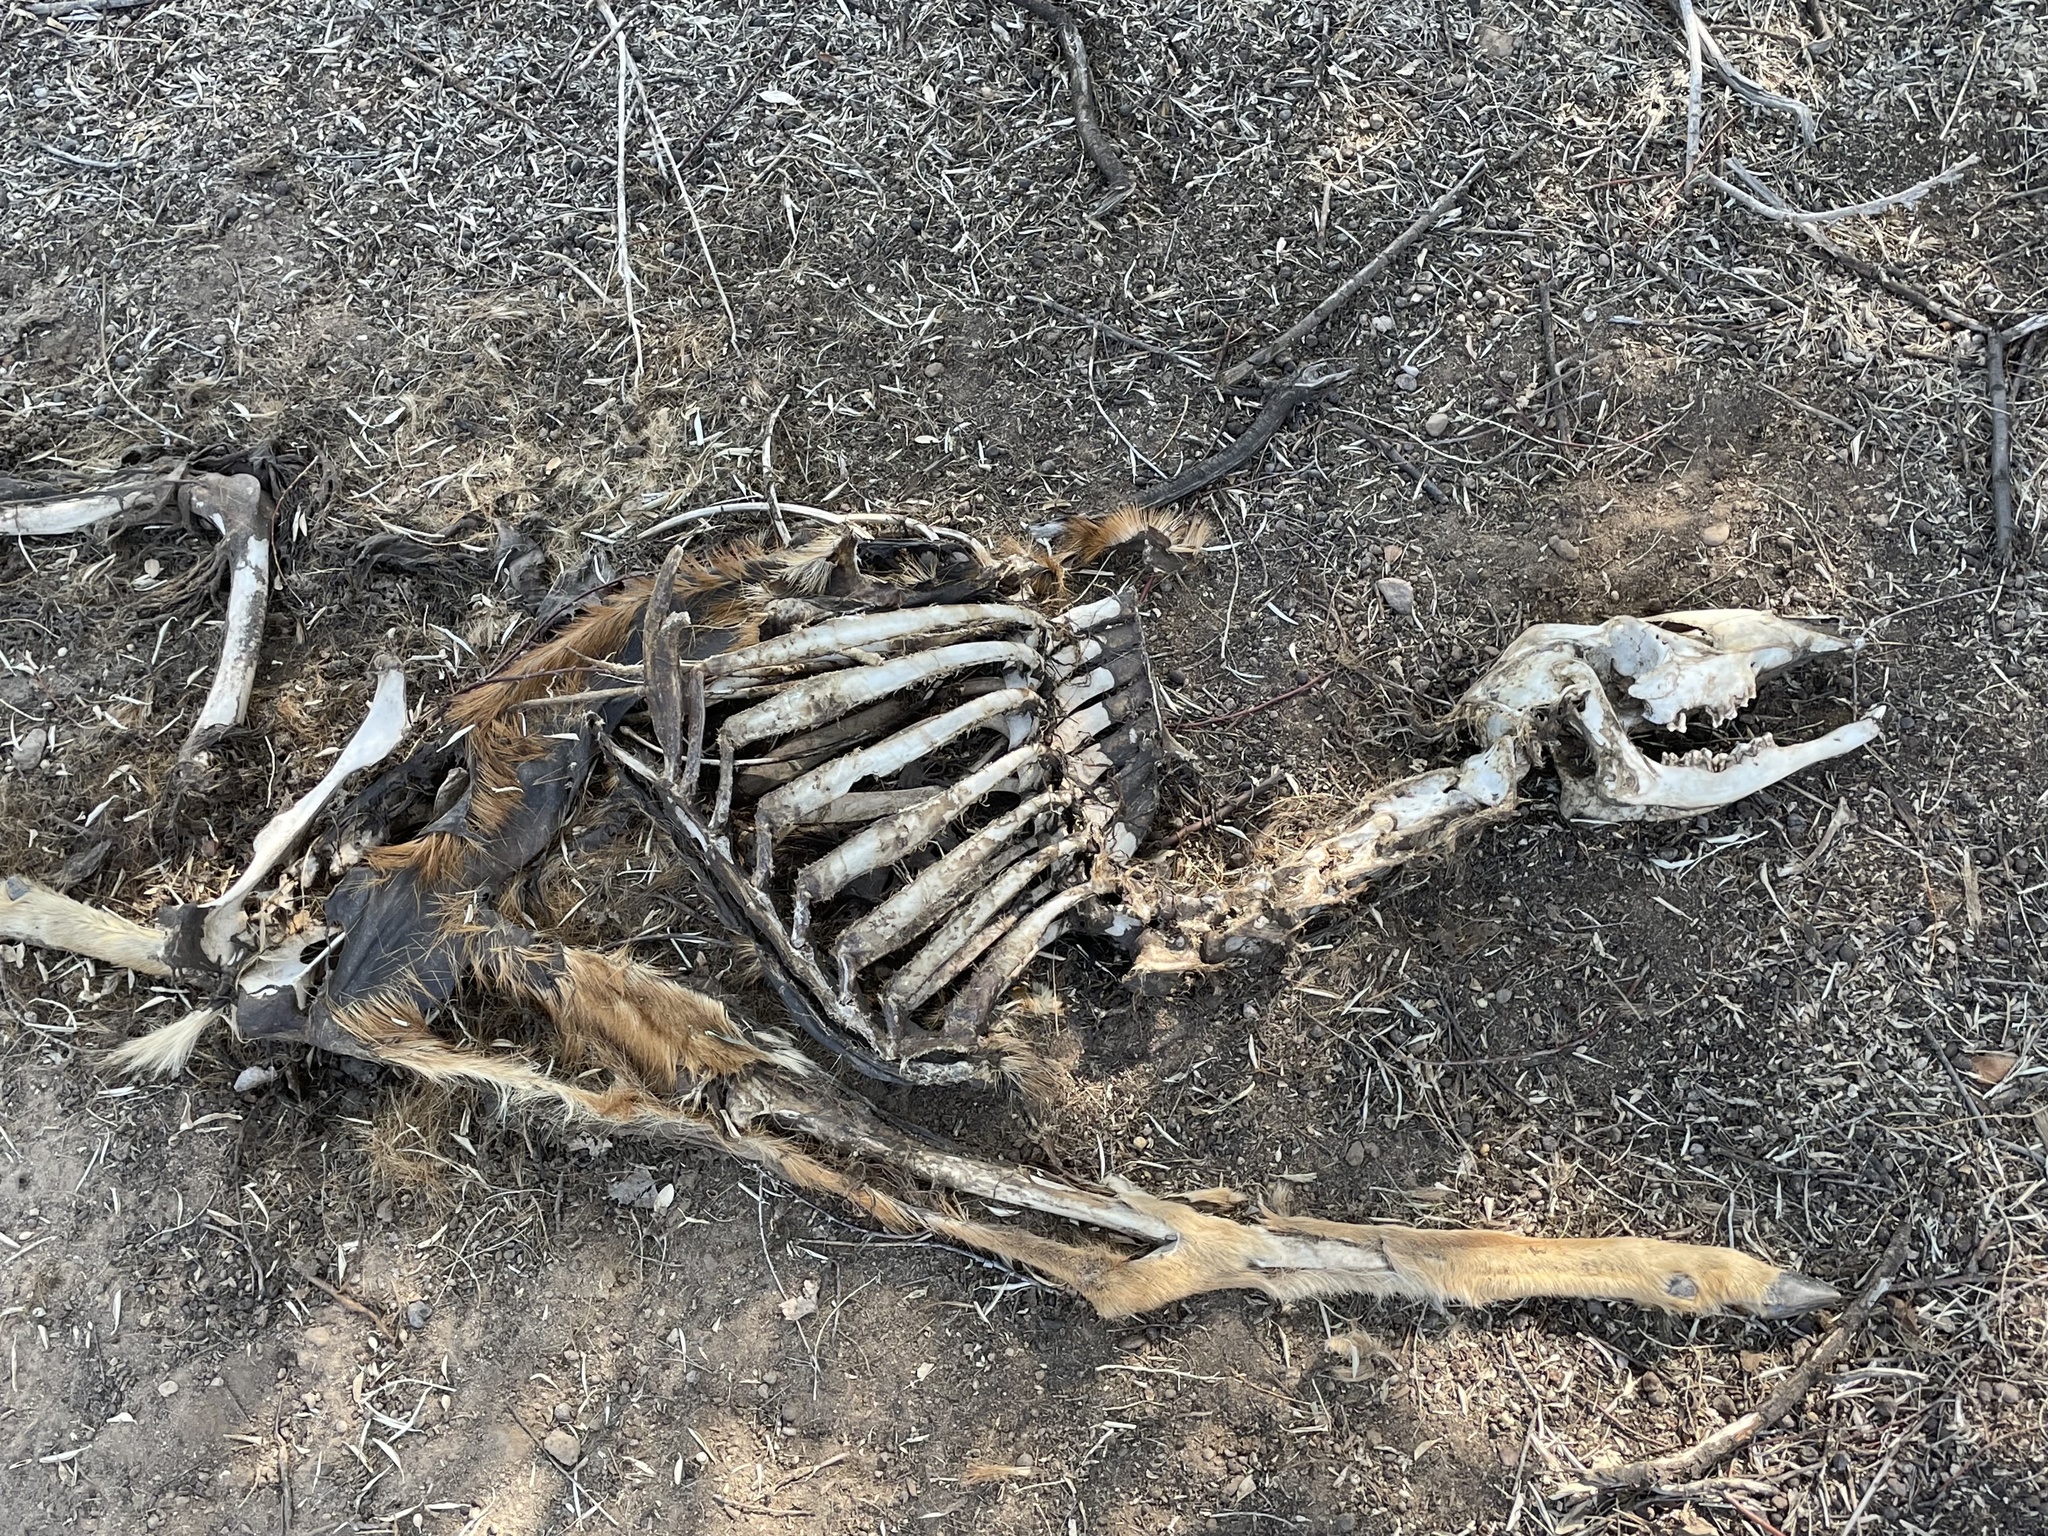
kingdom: Animalia
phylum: Chordata
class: Mammalia
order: Artiodactyla
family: Cervidae
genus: Odocoileus
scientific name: Odocoileus hemionus
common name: Mule deer
